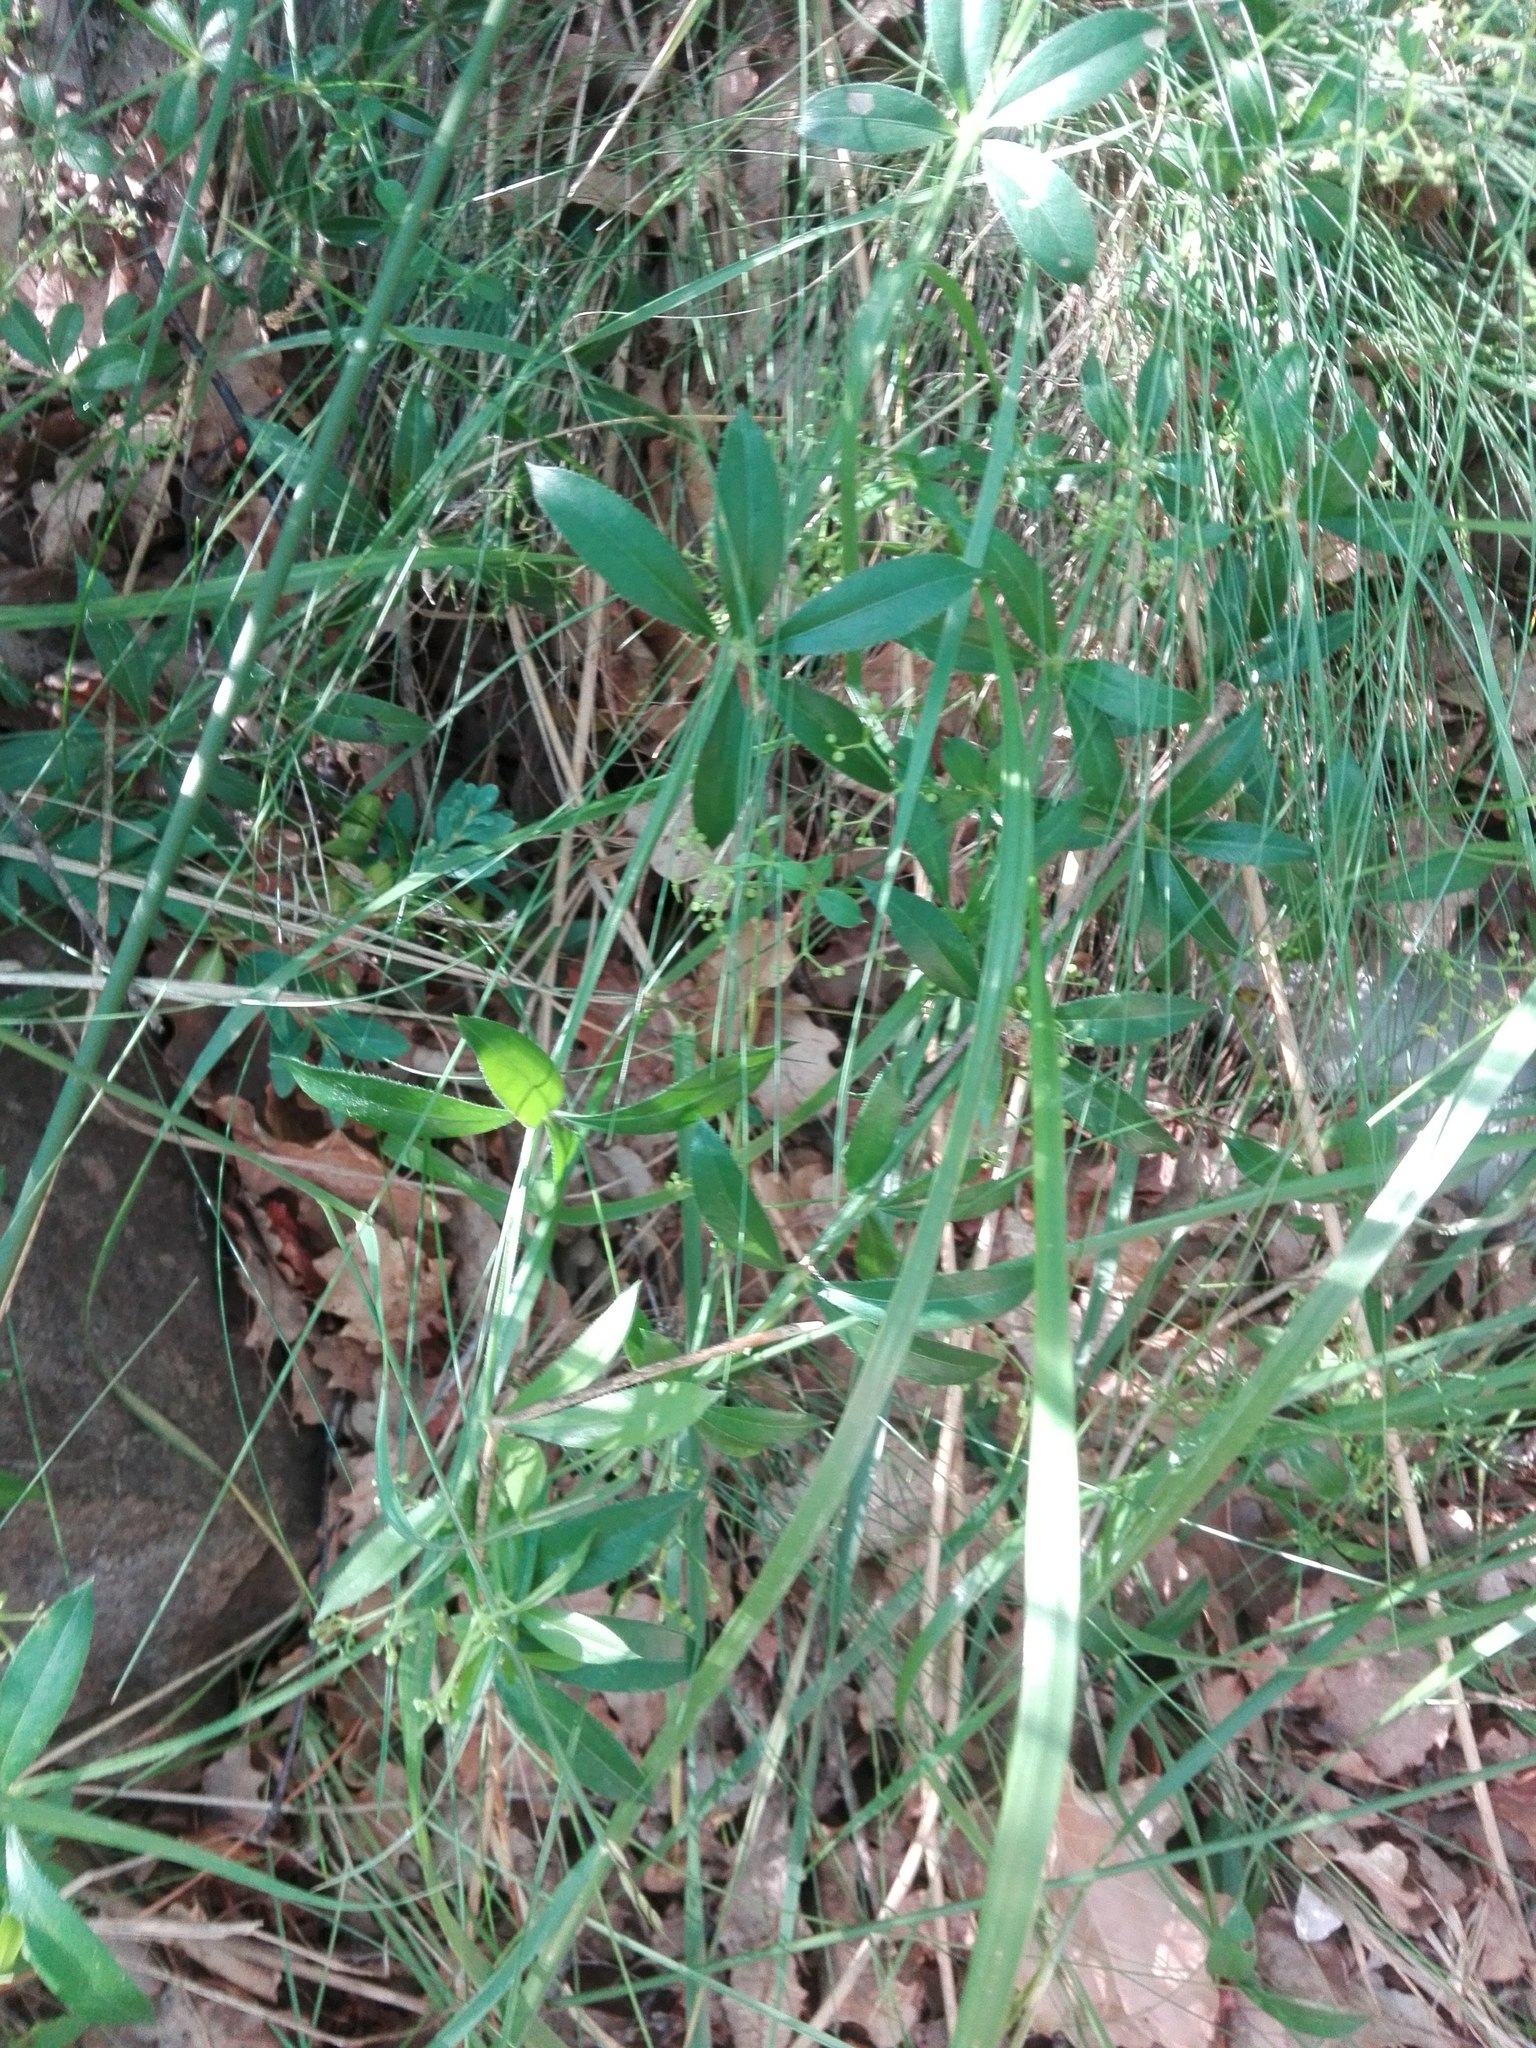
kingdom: Plantae
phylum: Tracheophyta
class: Magnoliopsida
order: Gentianales
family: Rubiaceae
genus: Rubia
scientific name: Rubia peregrina
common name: Wild madder
